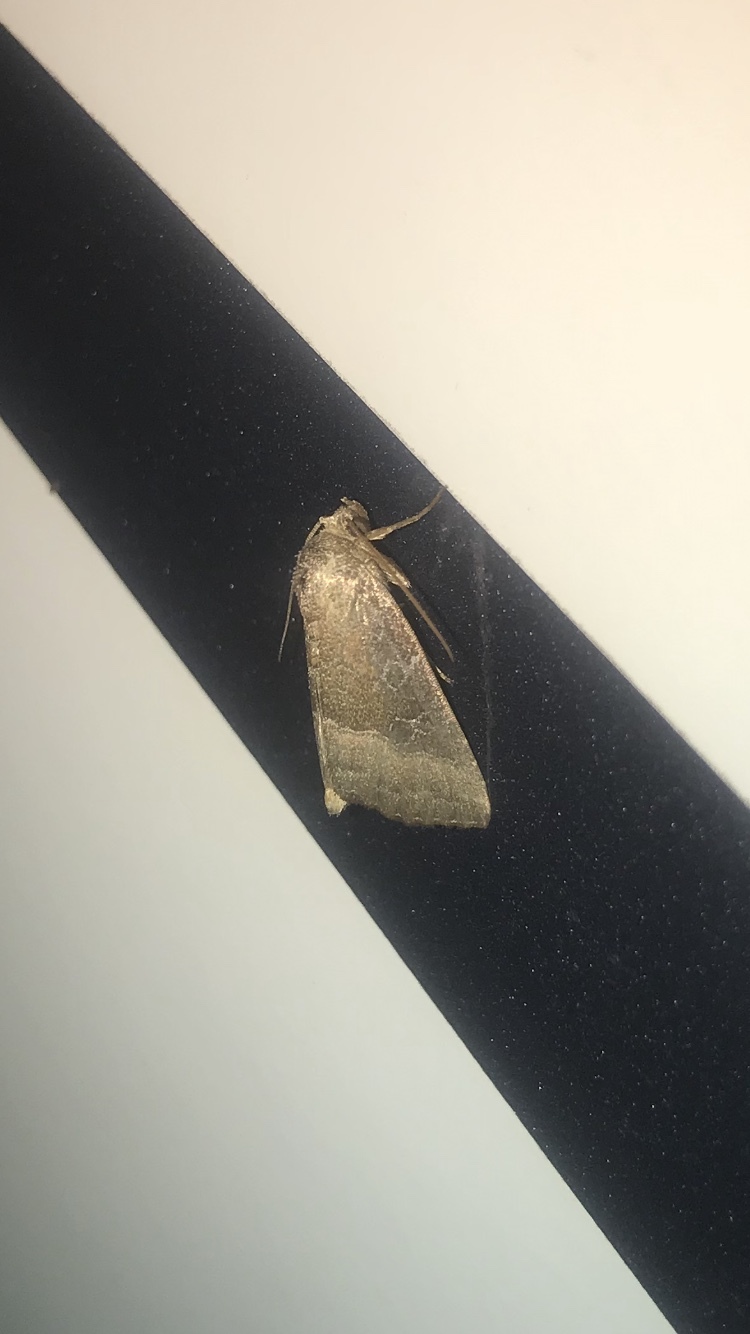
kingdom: Animalia
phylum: Arthropoda
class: Insecta
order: Lepidoptera
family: Noctuidae
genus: Ogdoconta
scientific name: Ogdoconta cinereola
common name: Common pinkband
